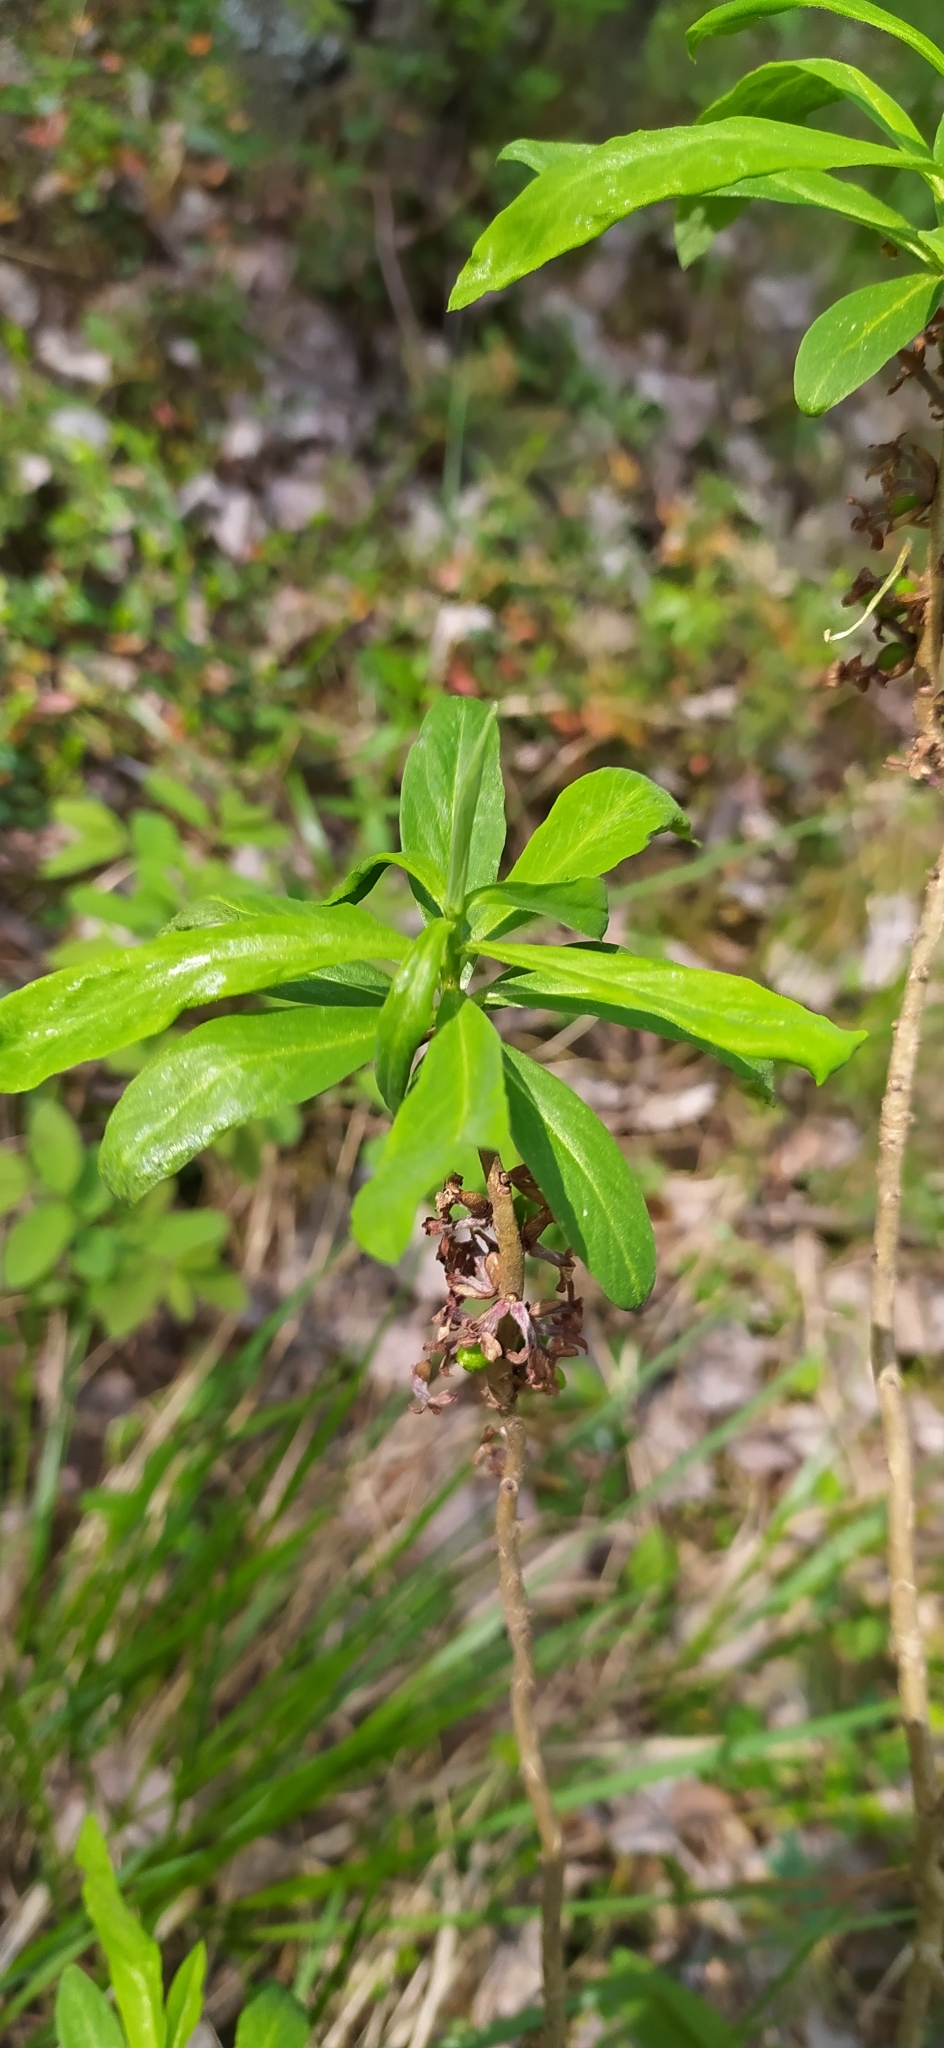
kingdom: Plantae
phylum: Tracheophyta
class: Magnoliopsida
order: Malvales
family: Thymelaeaceae
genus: Daphne
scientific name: Daphne mezereum
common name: Mezereon
